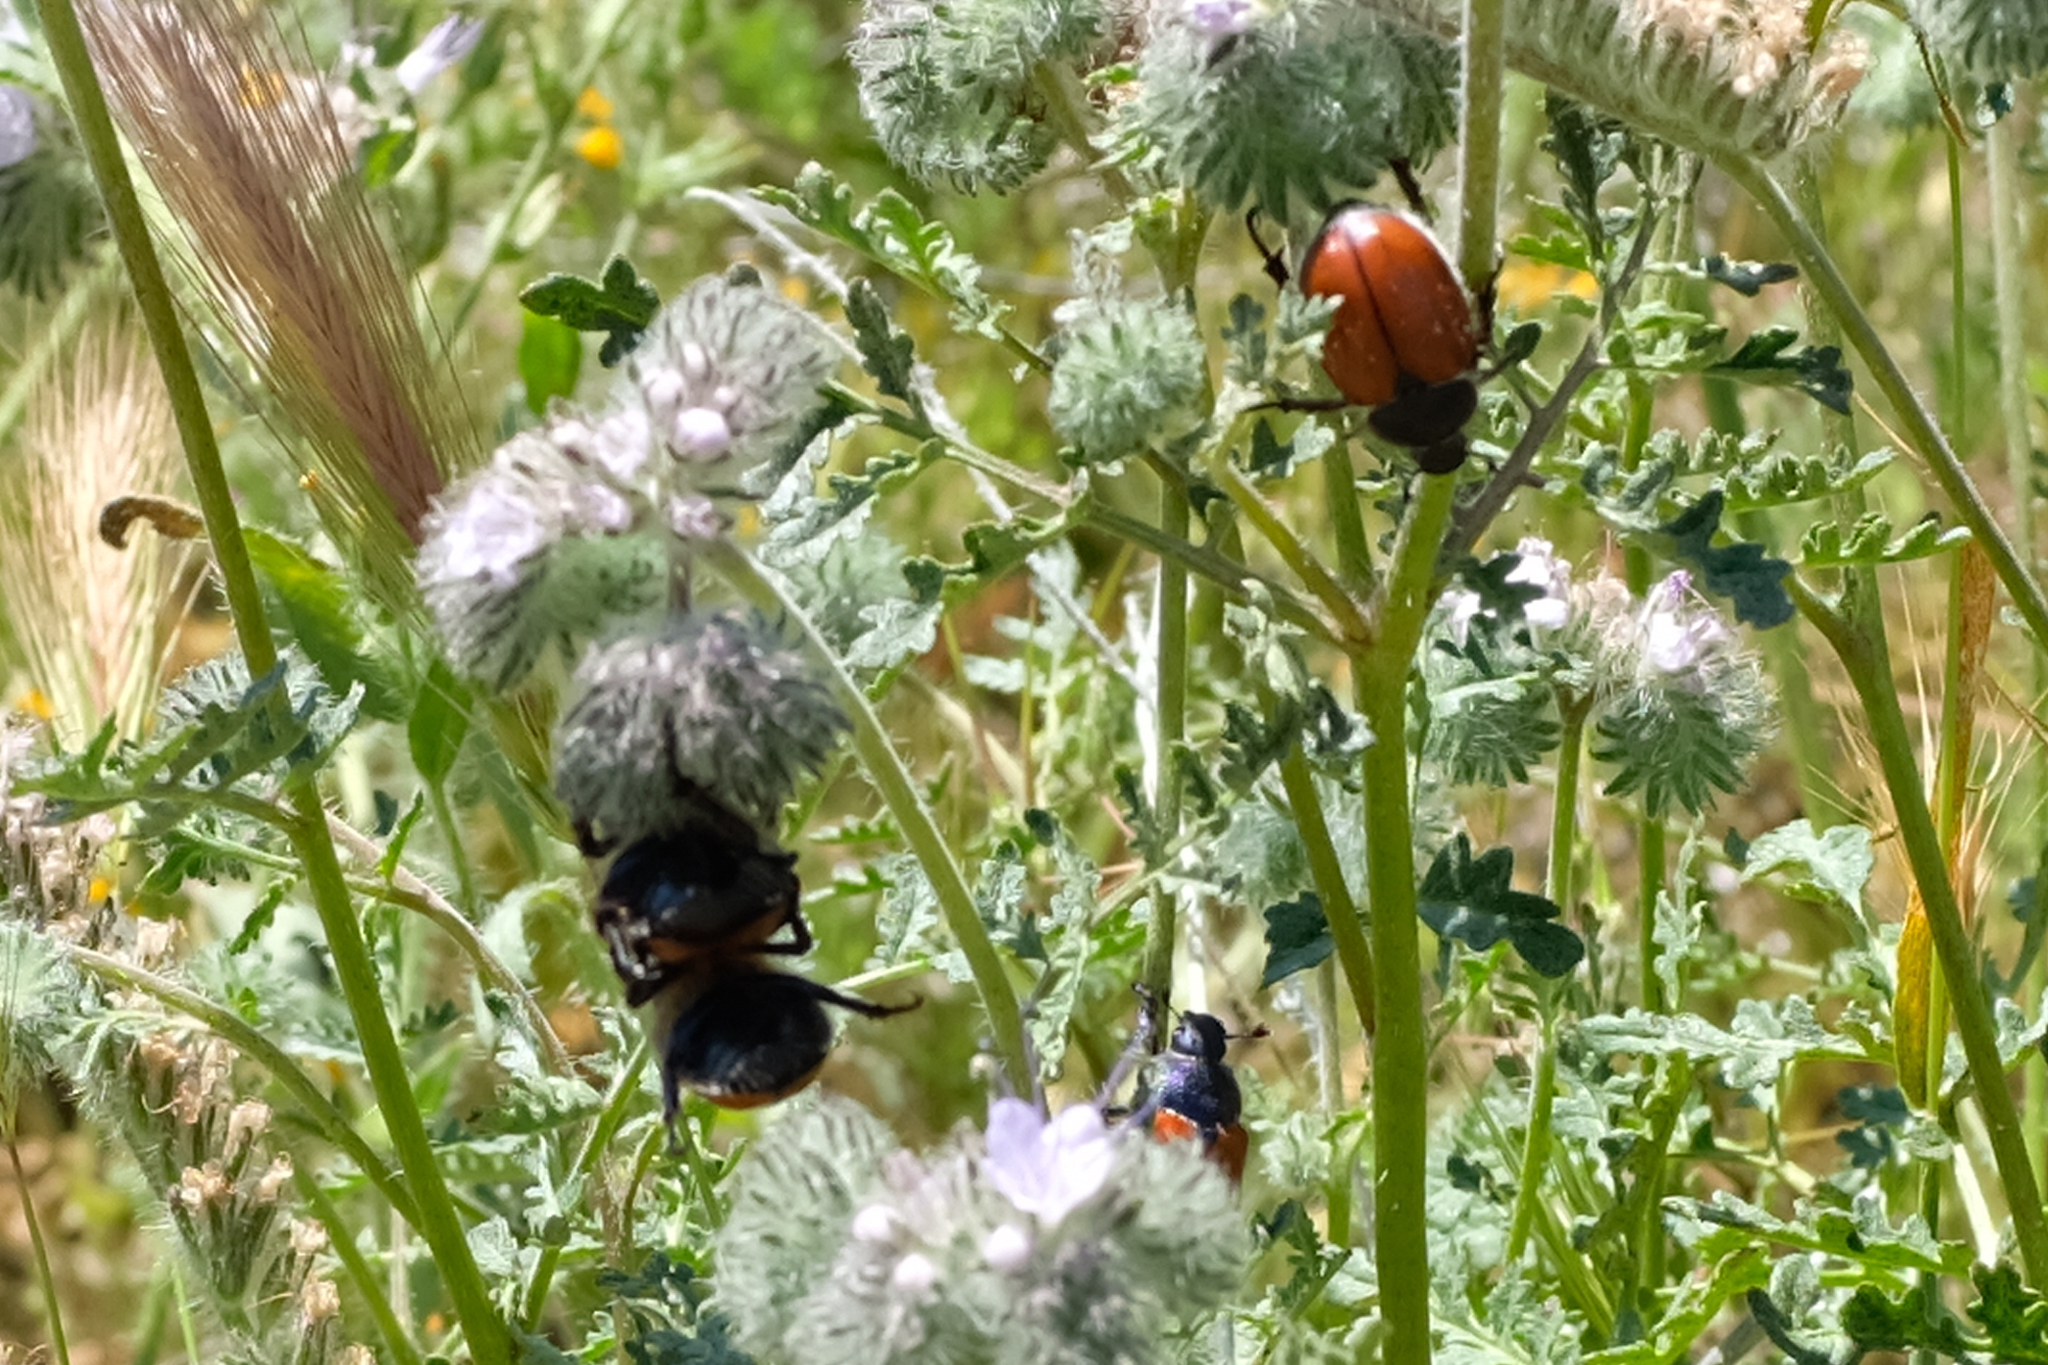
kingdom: Animalia
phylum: Arthropoda
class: Insecta
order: Coleoptera
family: Scarabaeidae
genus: Paracotalpa
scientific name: Paracotalpa ursina
